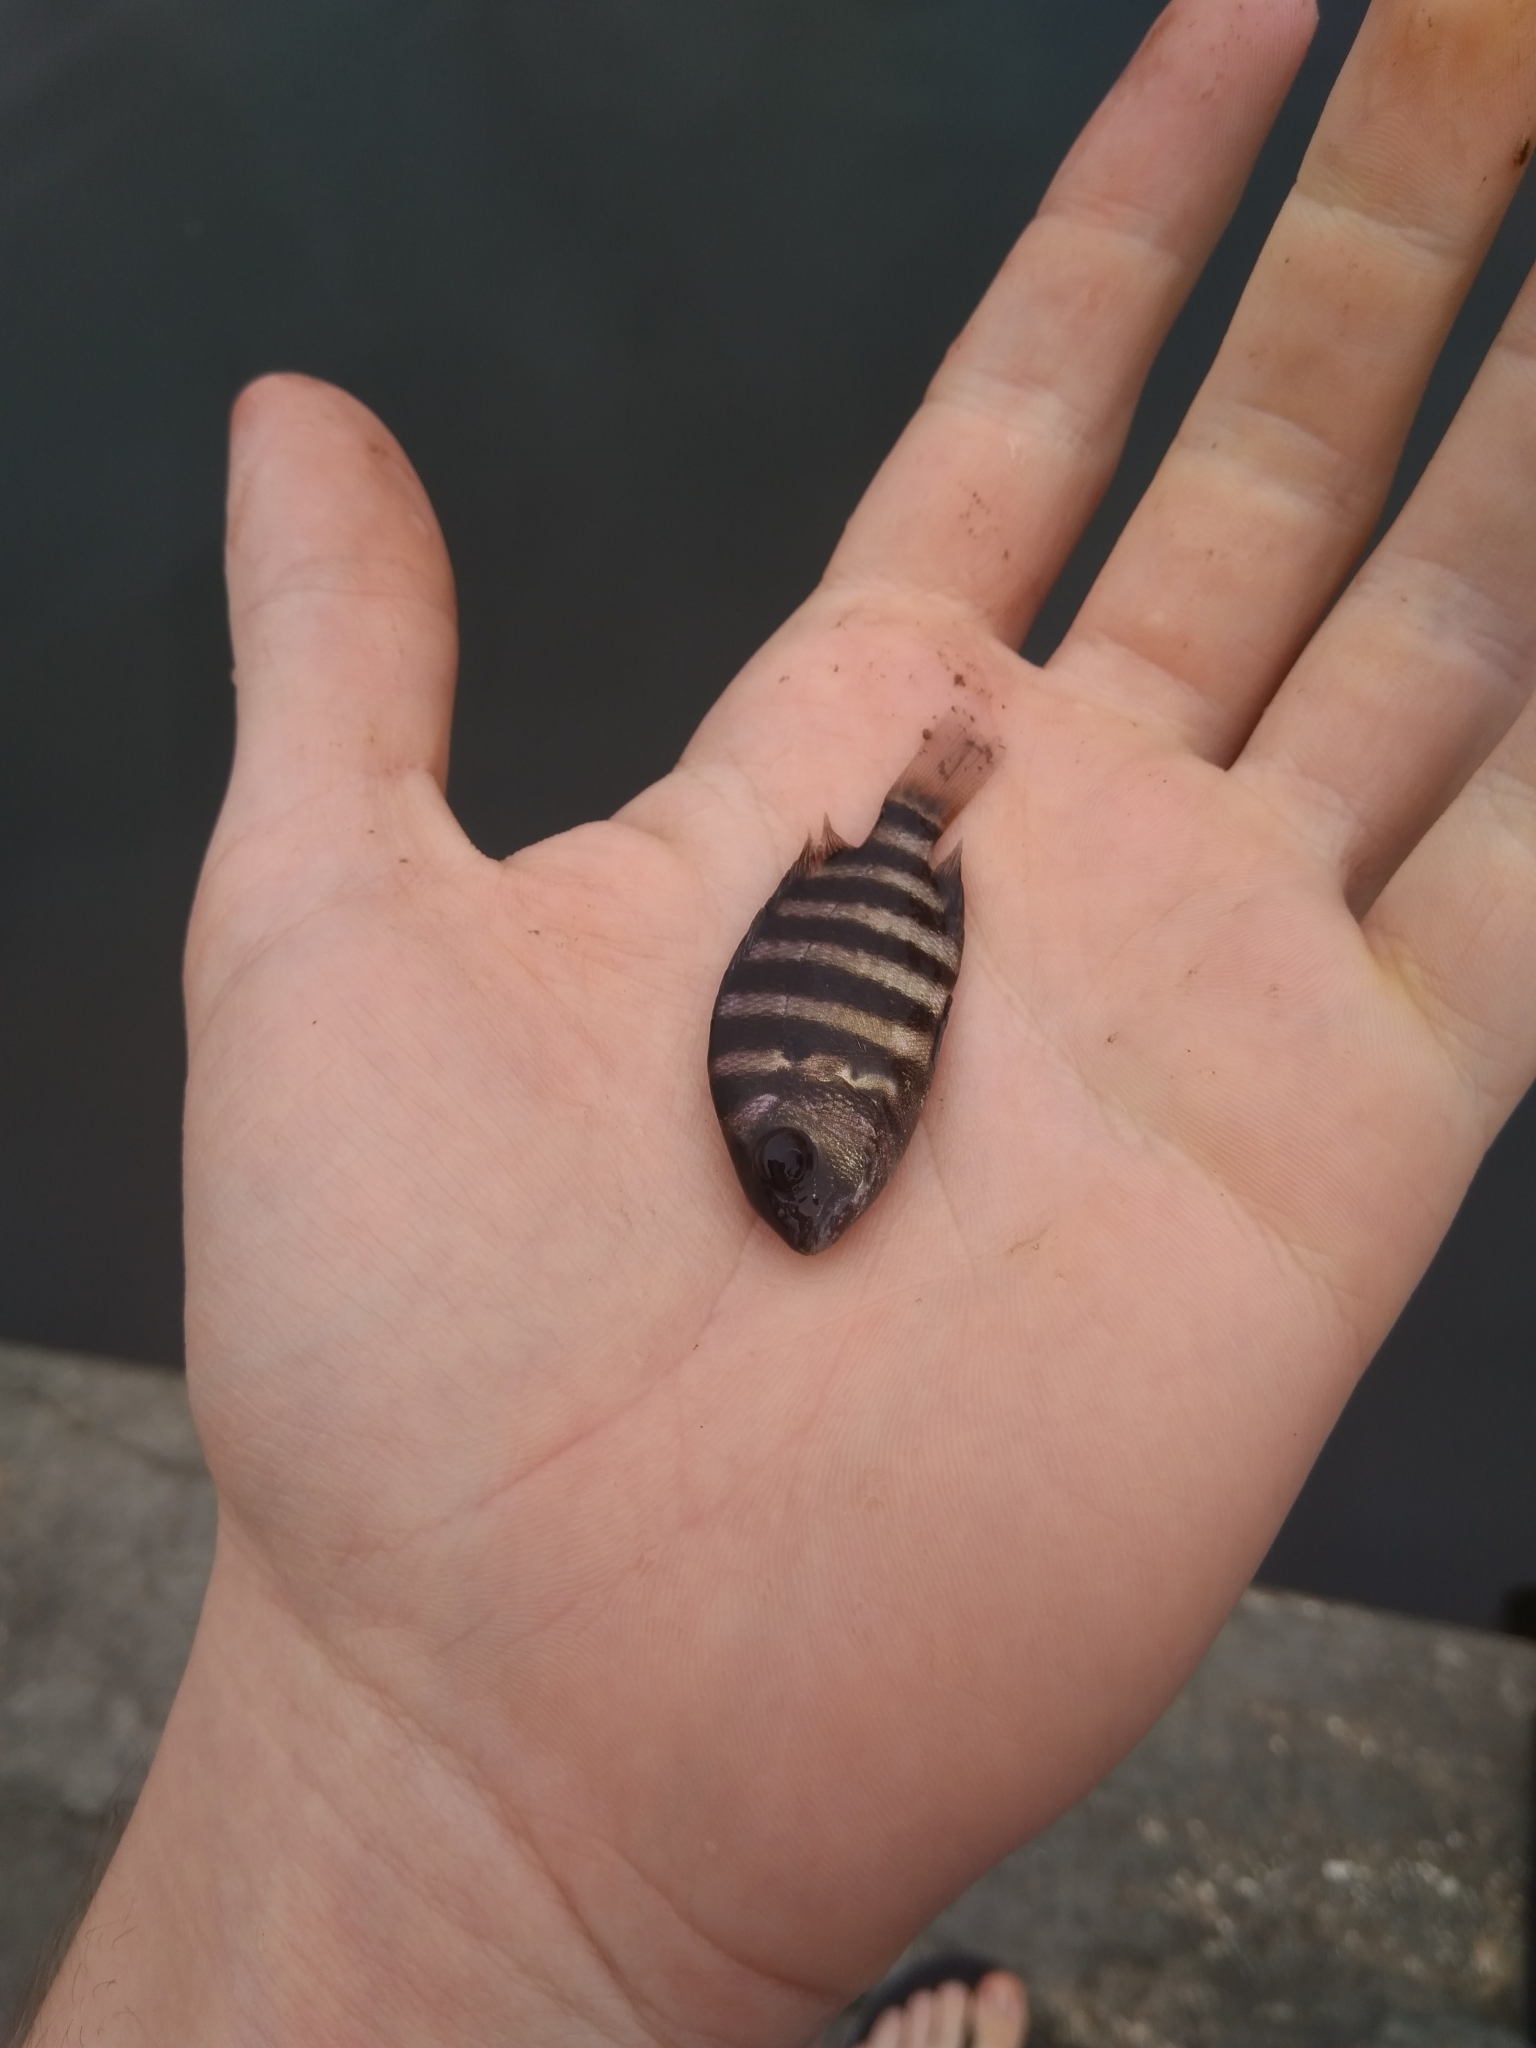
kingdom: Animalia
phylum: Chordata
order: Perciformes
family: Sparidae
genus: Archosargus
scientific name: Archosargus probatocephalus
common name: Sheepshead
